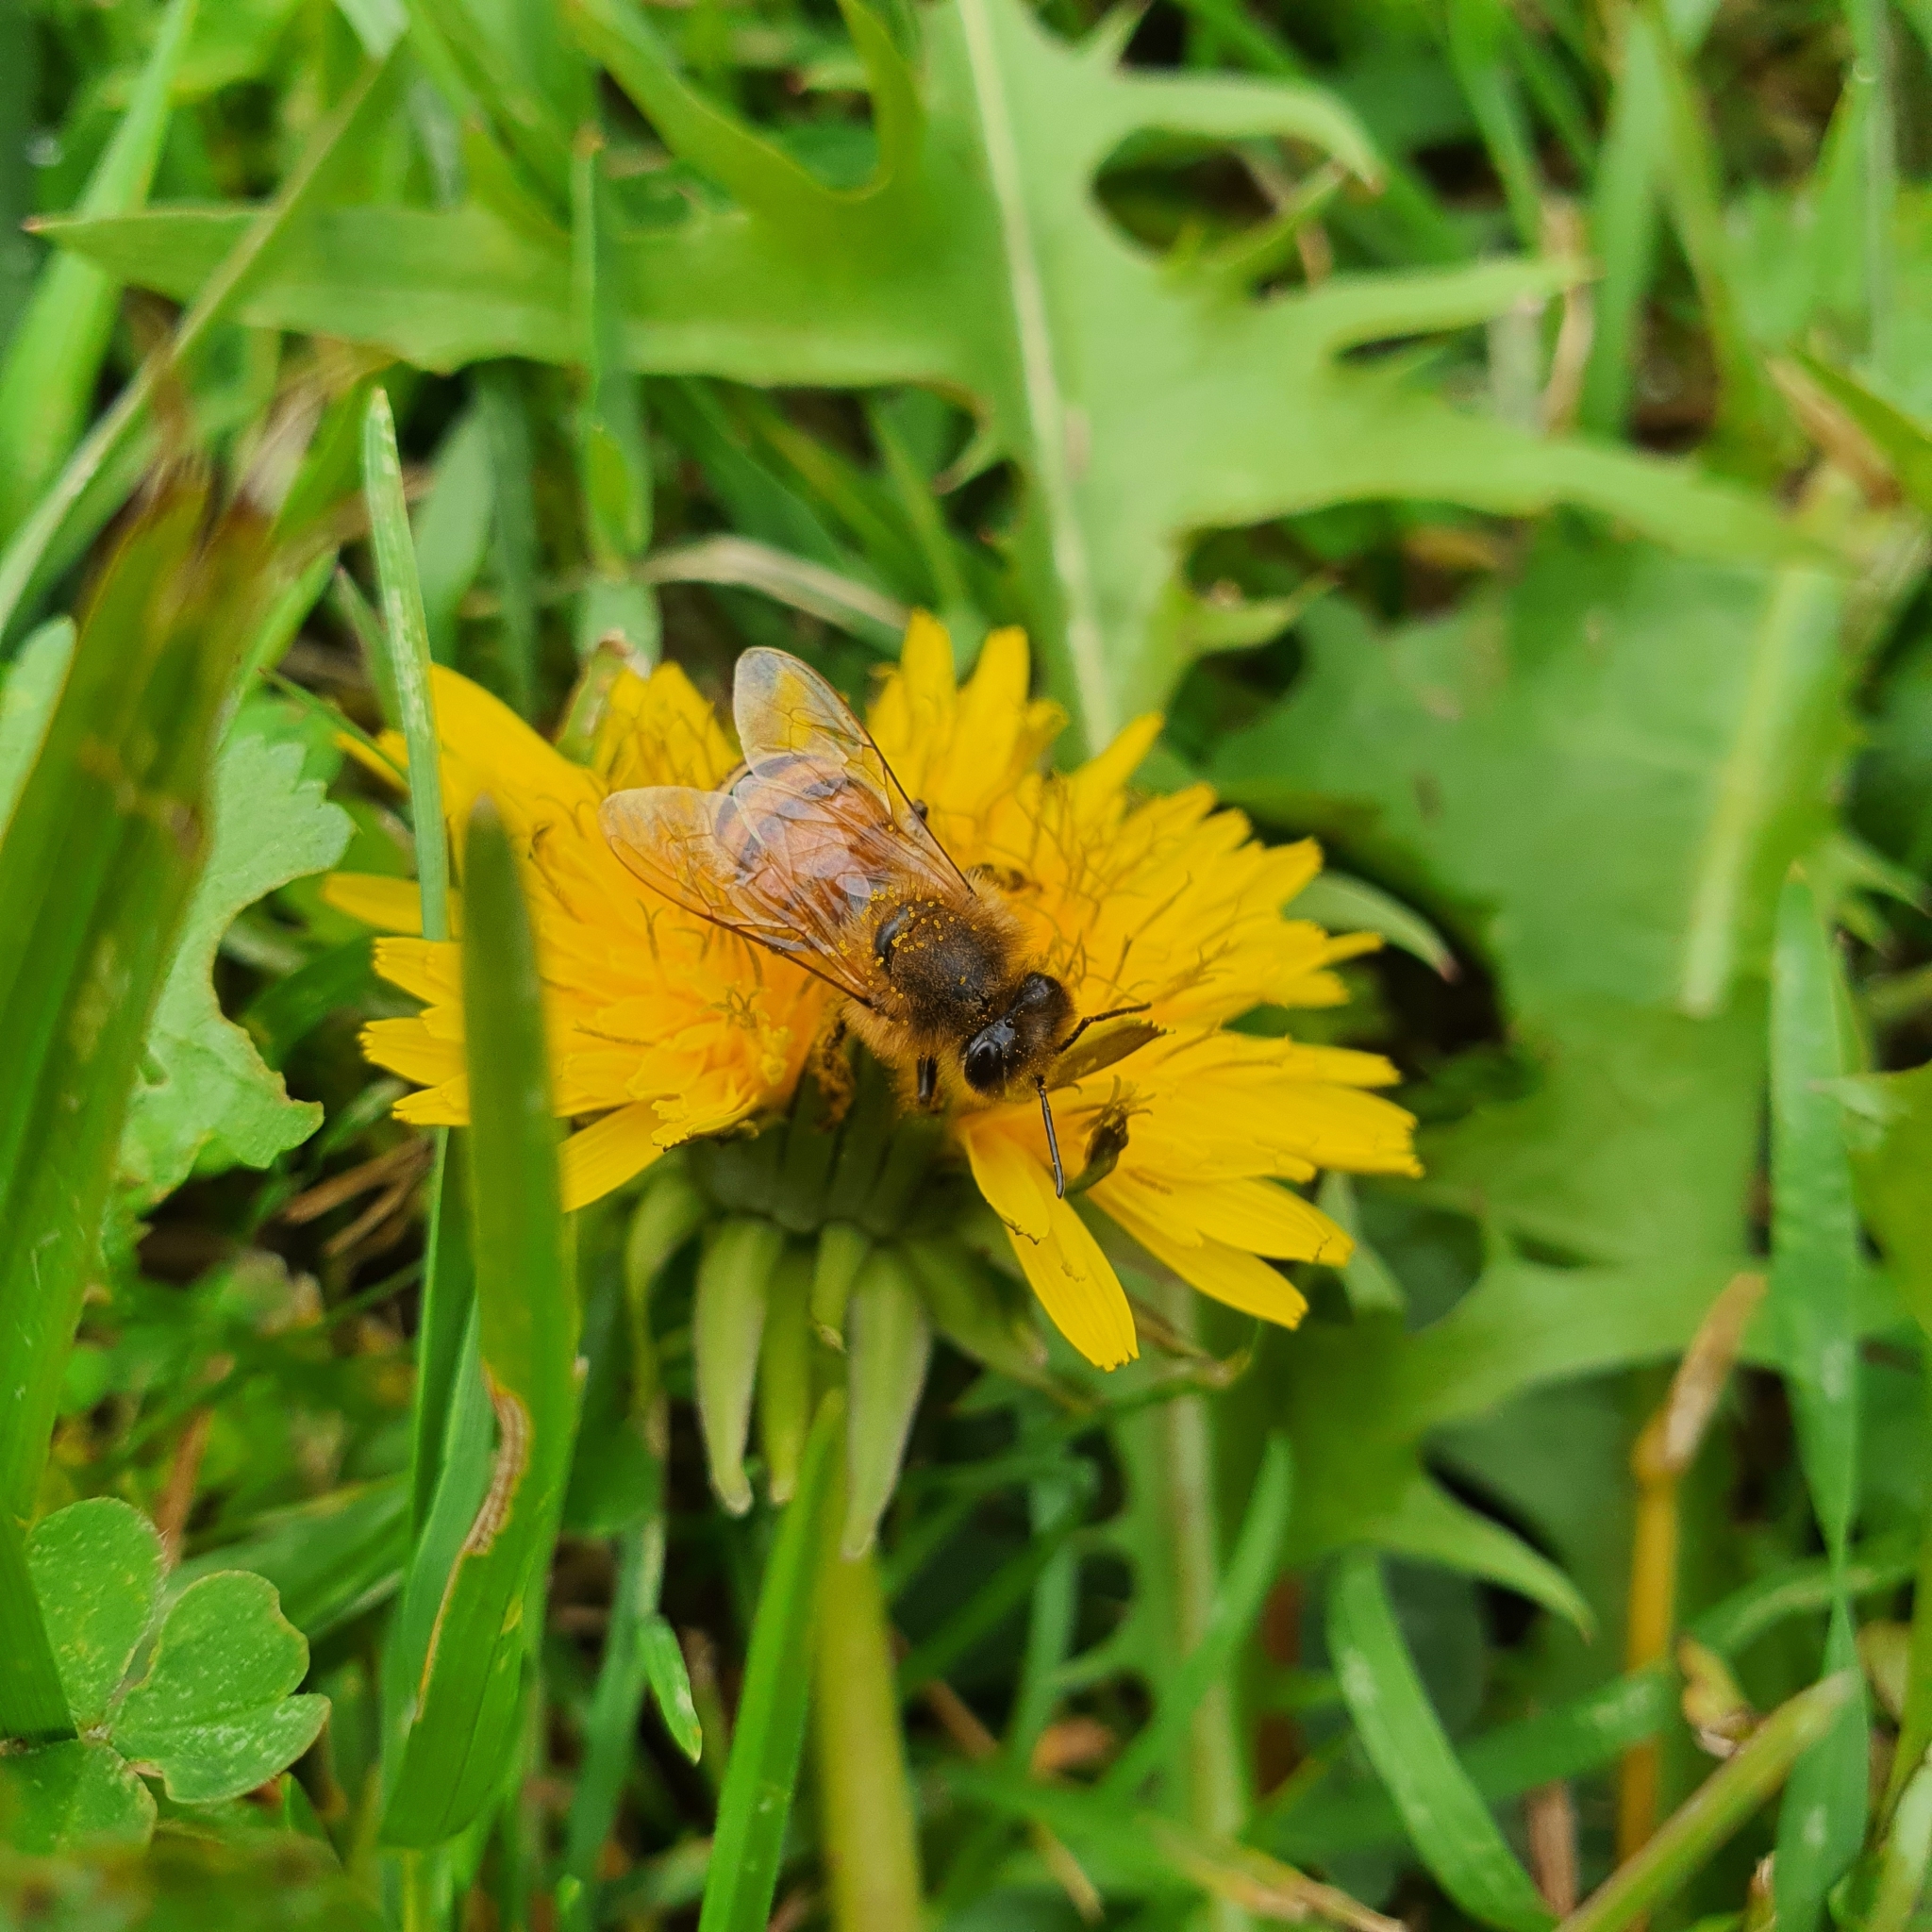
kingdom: Animalia
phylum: Arthropoda
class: Insecta
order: Hymenoptera
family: Apidae
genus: Apis
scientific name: Apis mellifera
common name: Honey bee
